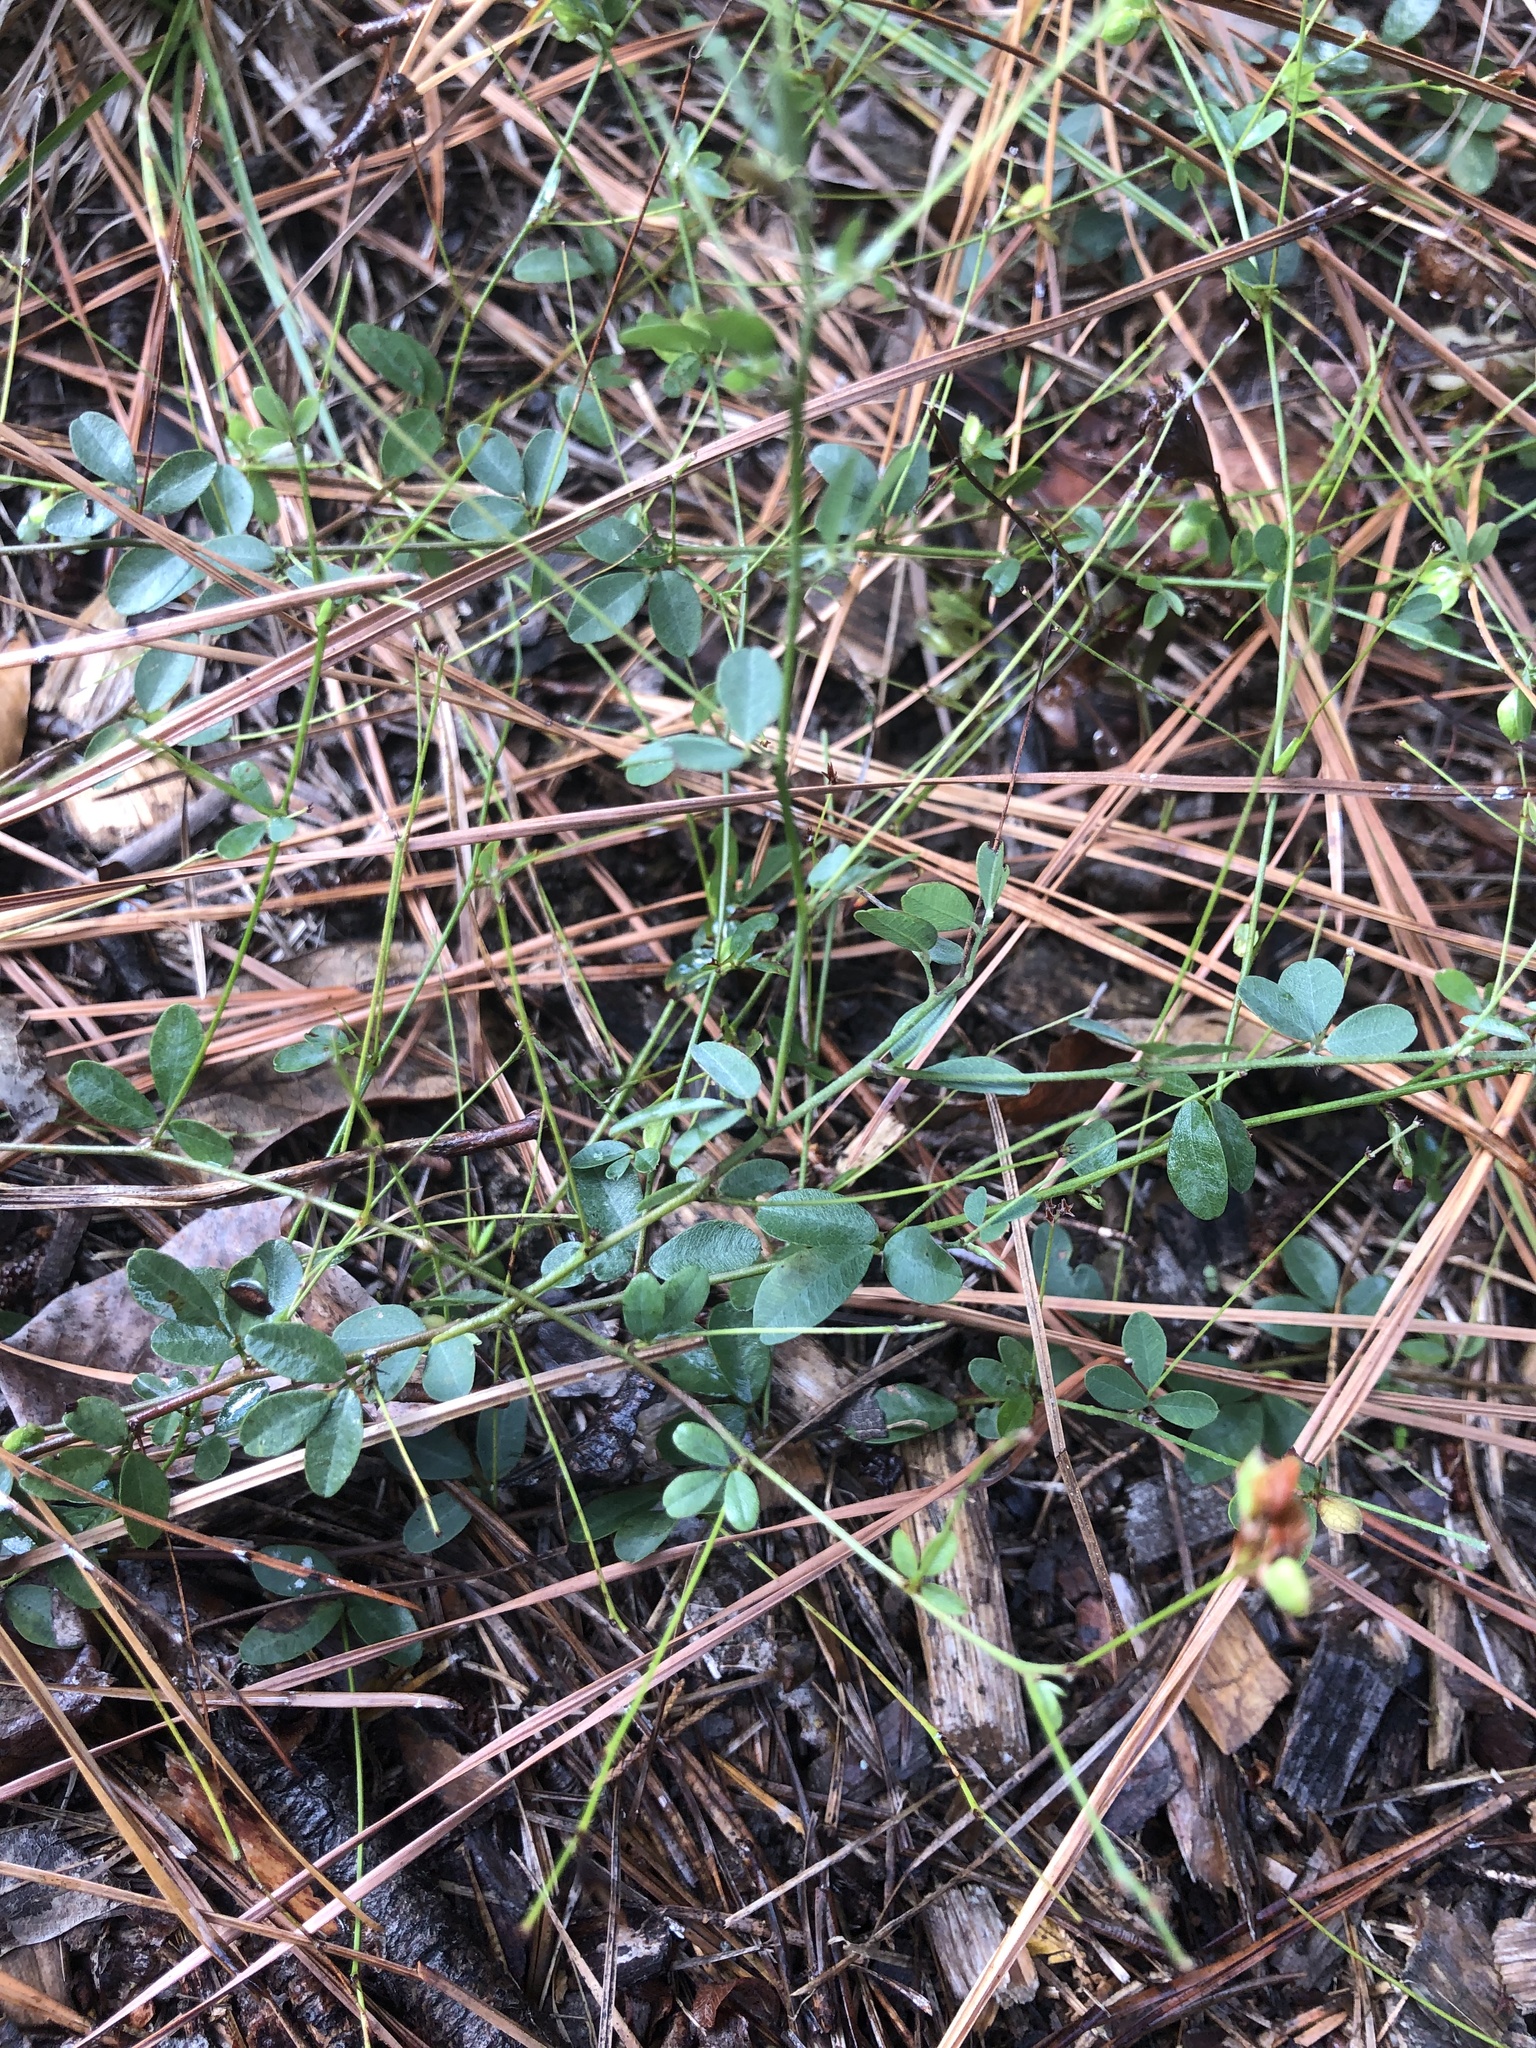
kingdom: Plantae
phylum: Tracheophyta
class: Magnoliopsida
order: Fabales
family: Fabaceae
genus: Lespedeza
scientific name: Lespedeza repens
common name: Creeping bush-clover
